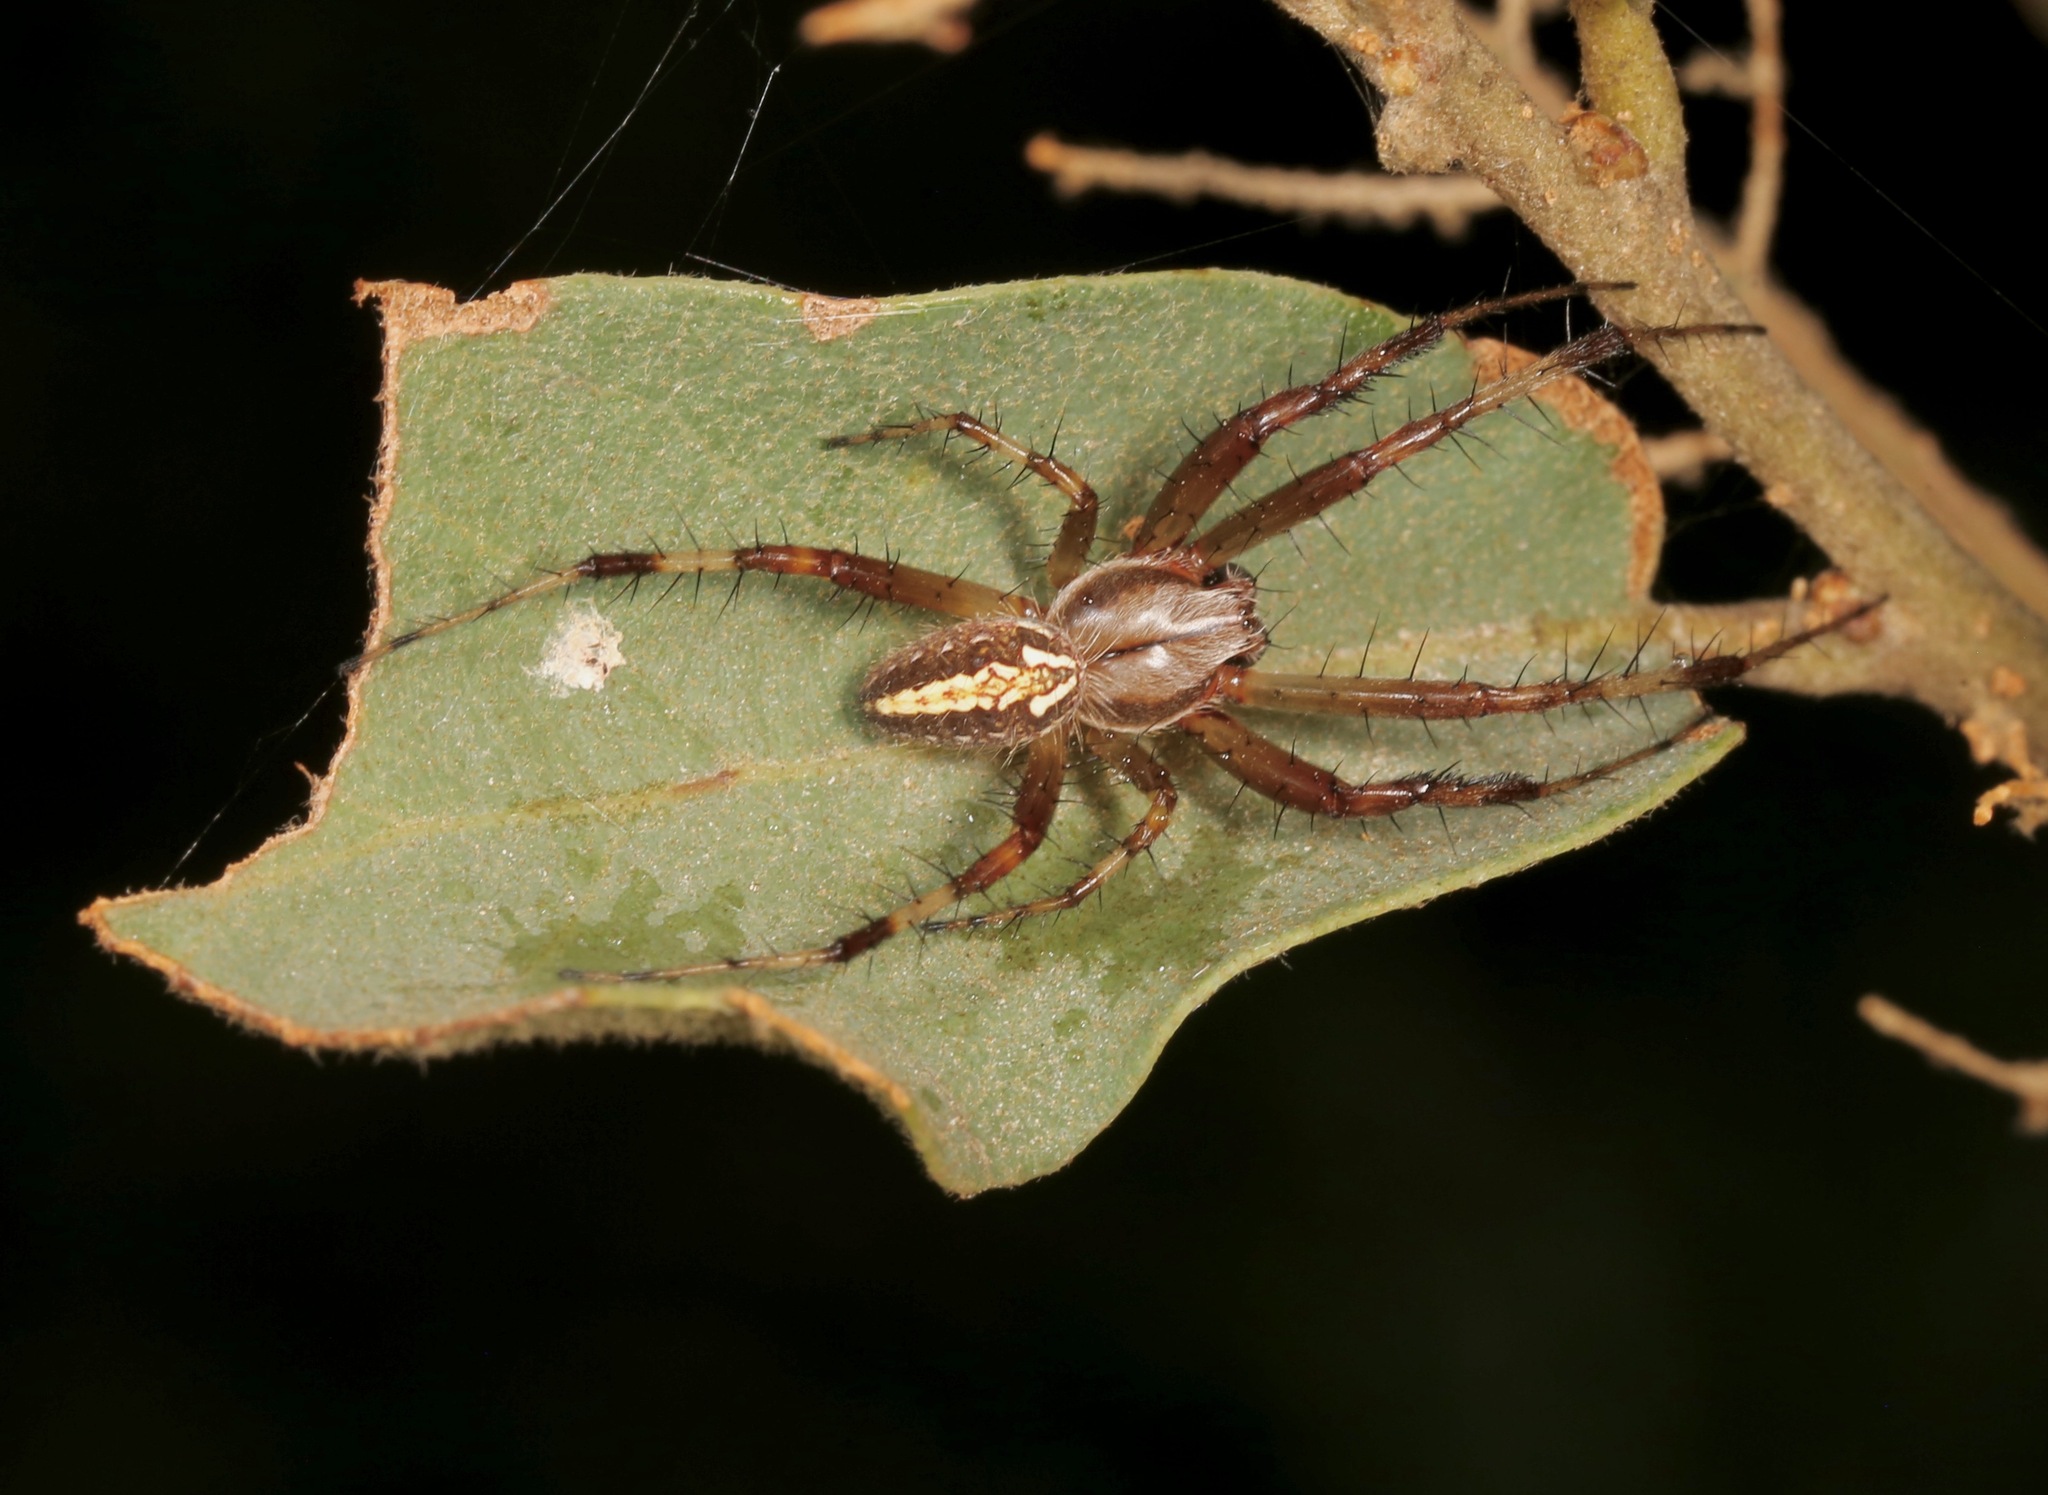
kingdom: Animalia
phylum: Arthropoda
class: Arachnida
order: Araneae
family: Araneidae
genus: Neoscona
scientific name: Neoscona oaxacensis
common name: Orb weavers
